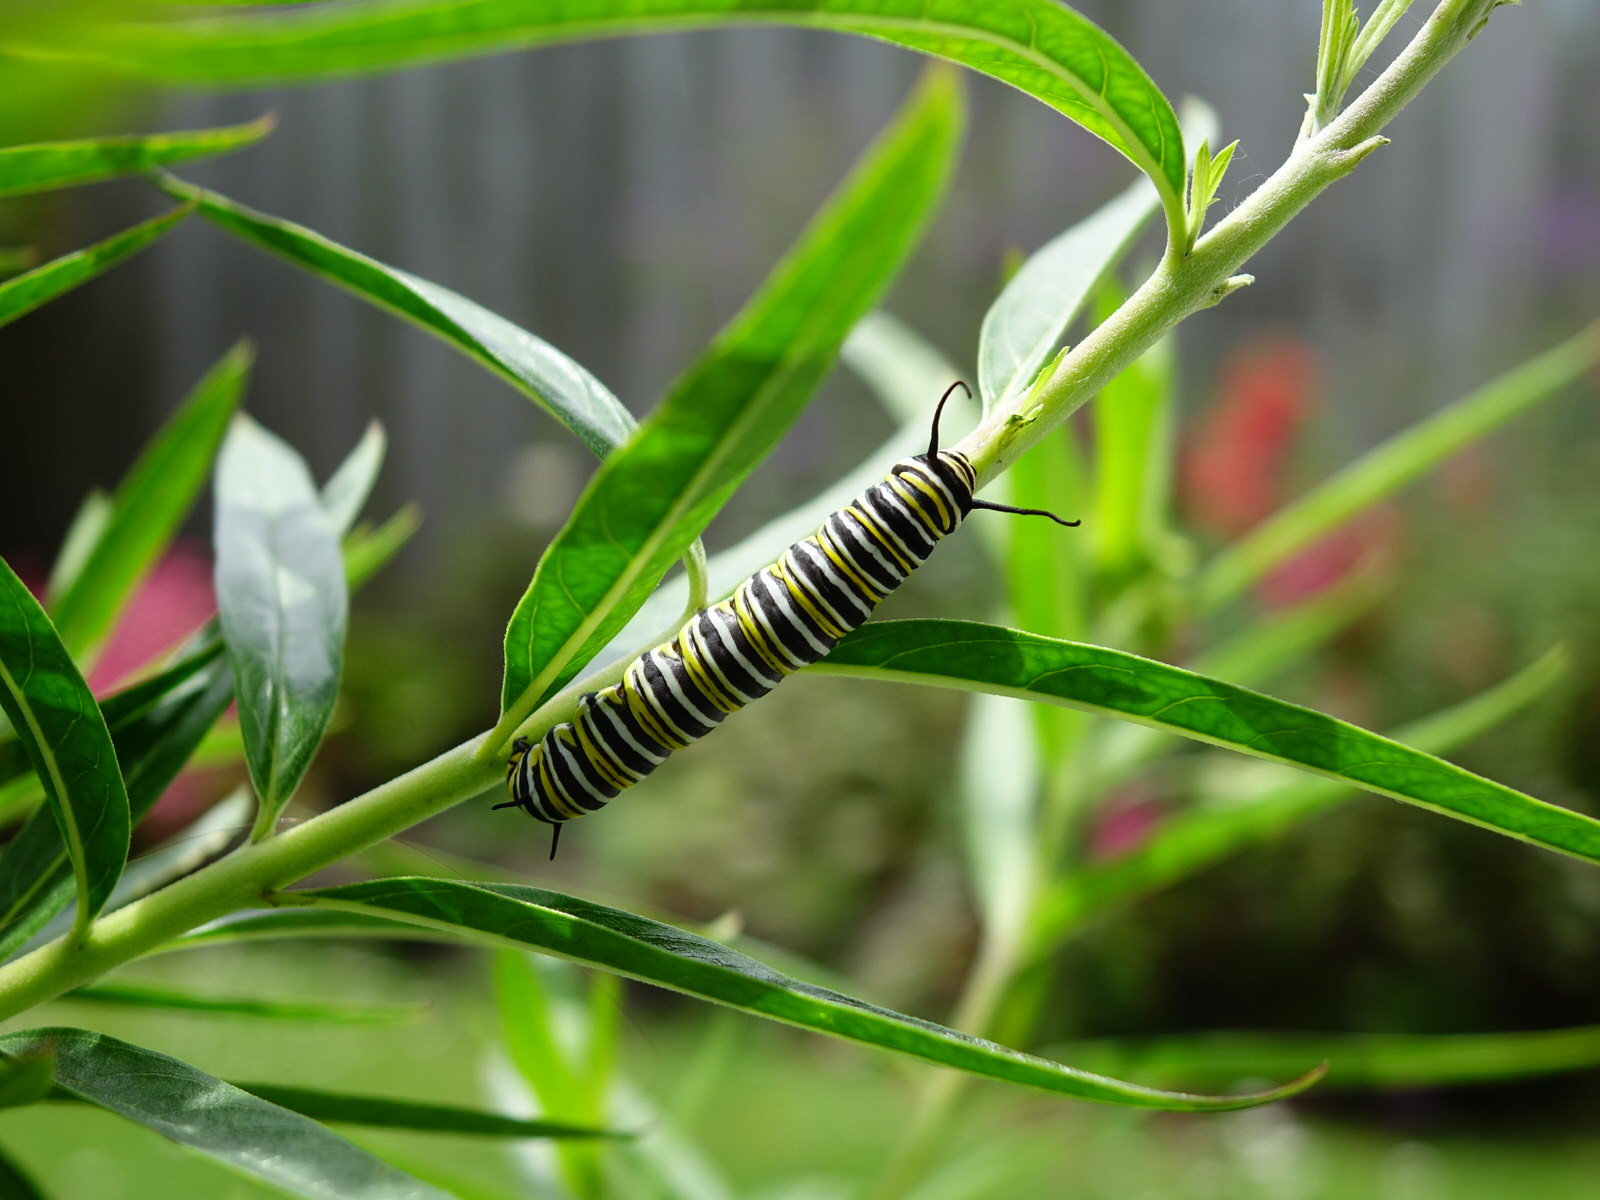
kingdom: Animalia
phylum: Arthropoda
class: Insecta
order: Lepidoptera
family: Nymphalidae
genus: Danaus
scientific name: Danaus plexippus
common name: Monarch
